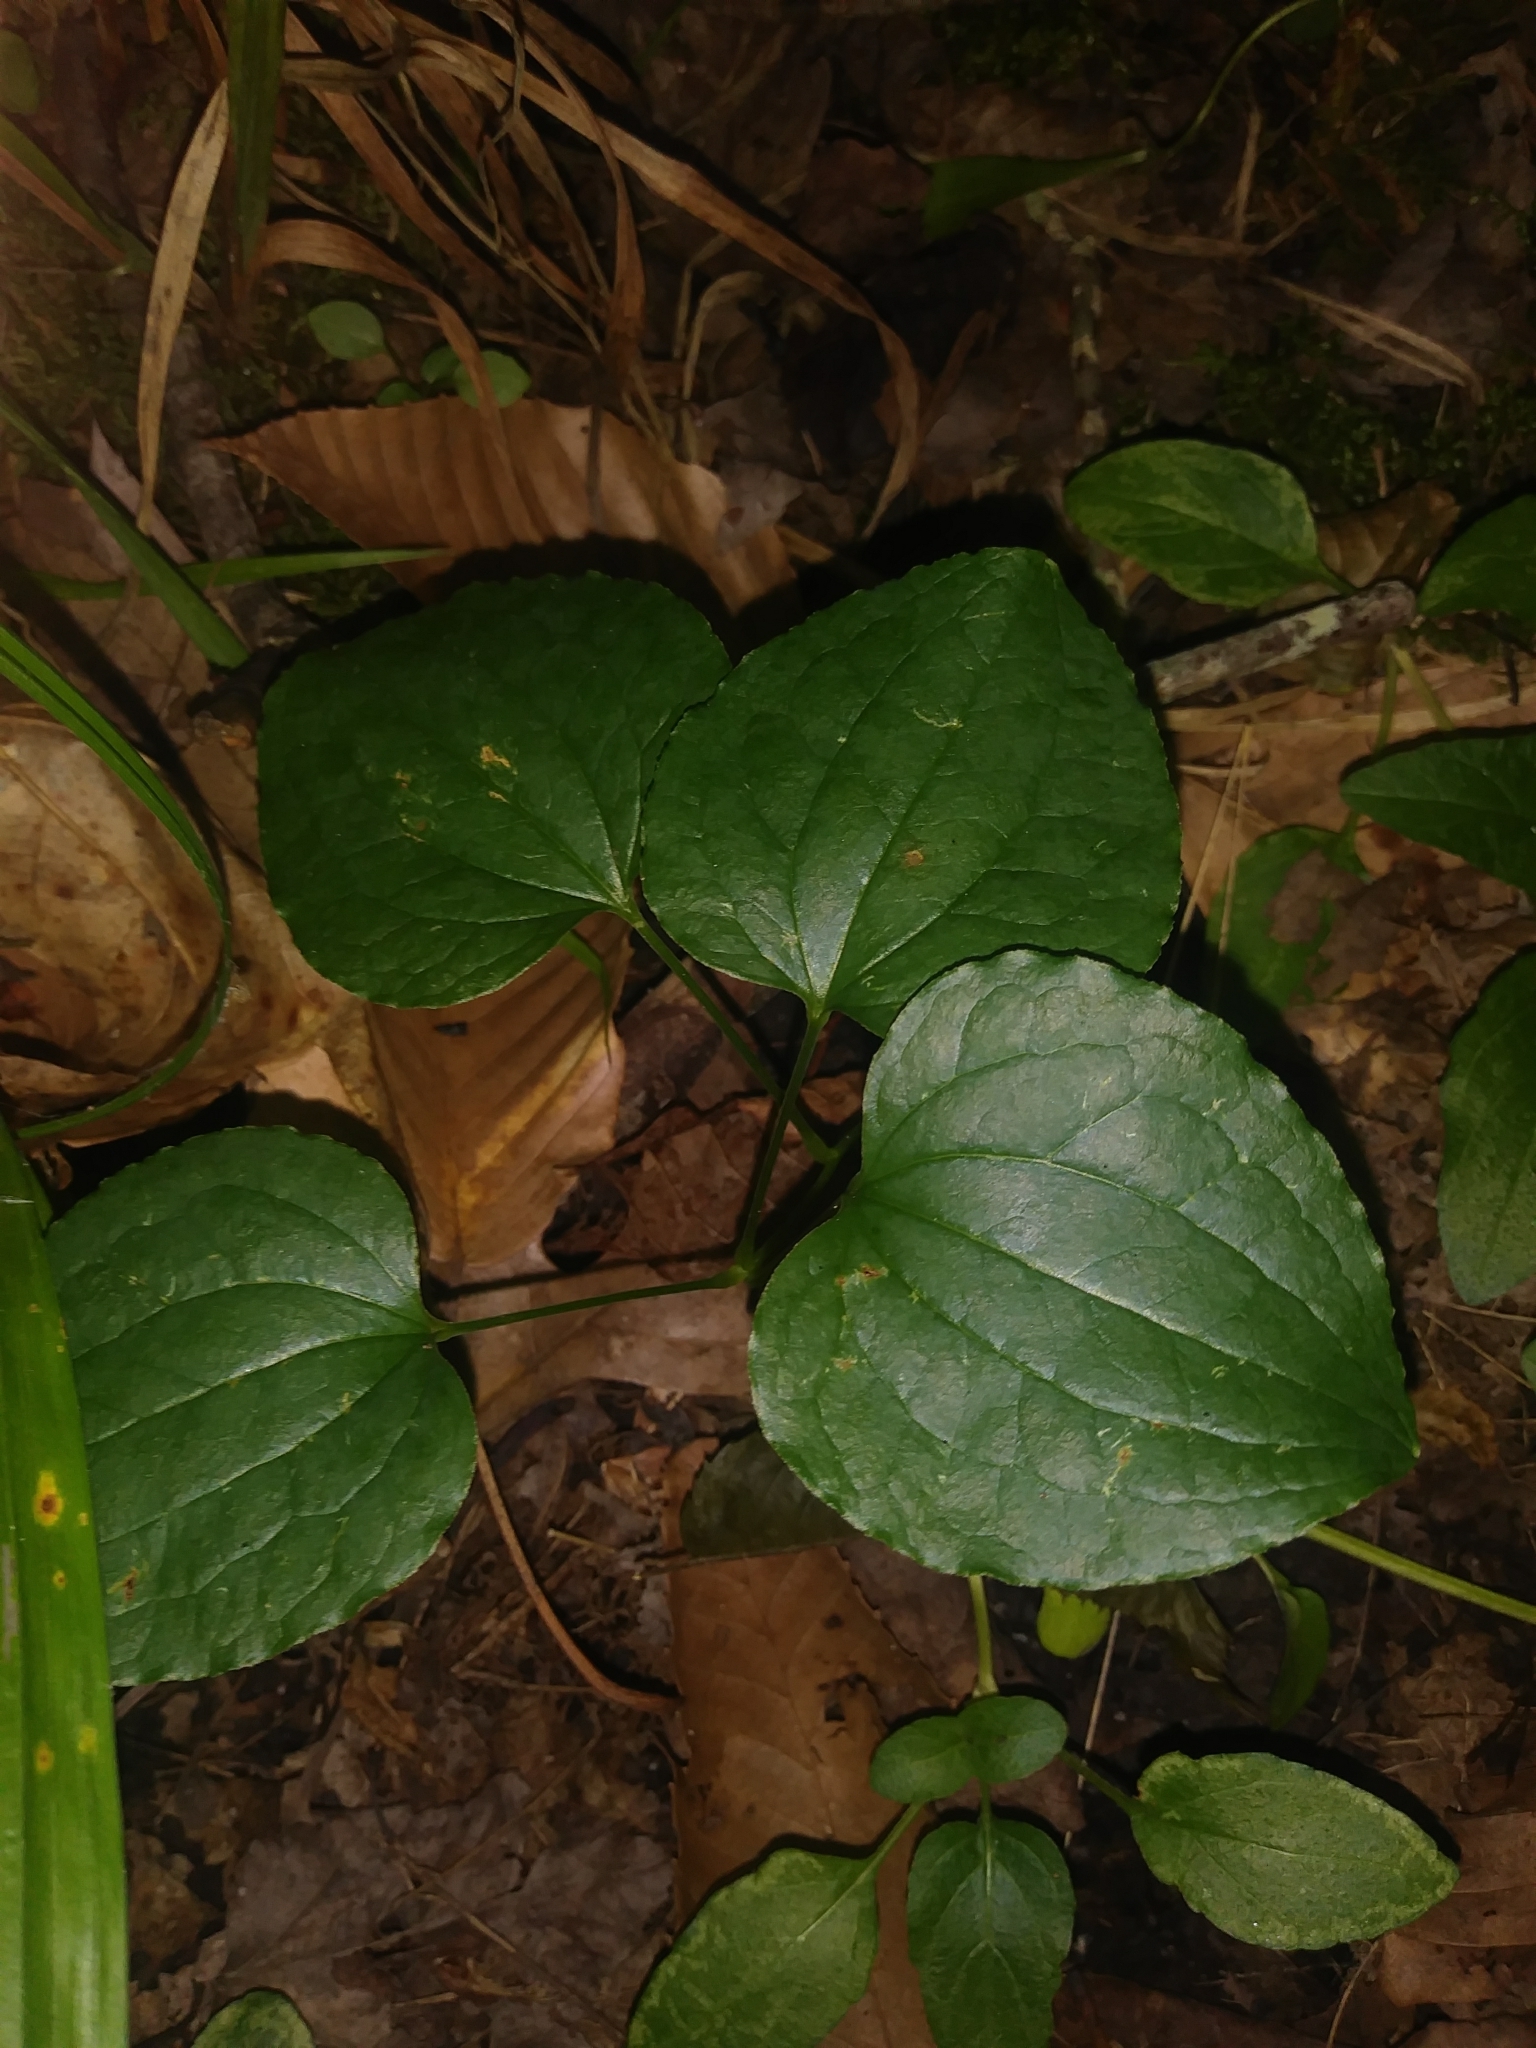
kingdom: Plantae
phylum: Tracheophyta
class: Liliopsida
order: Liliales
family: Smilacaceae
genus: Smilax
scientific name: Smilax herbacea
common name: Jacob's-ladder
